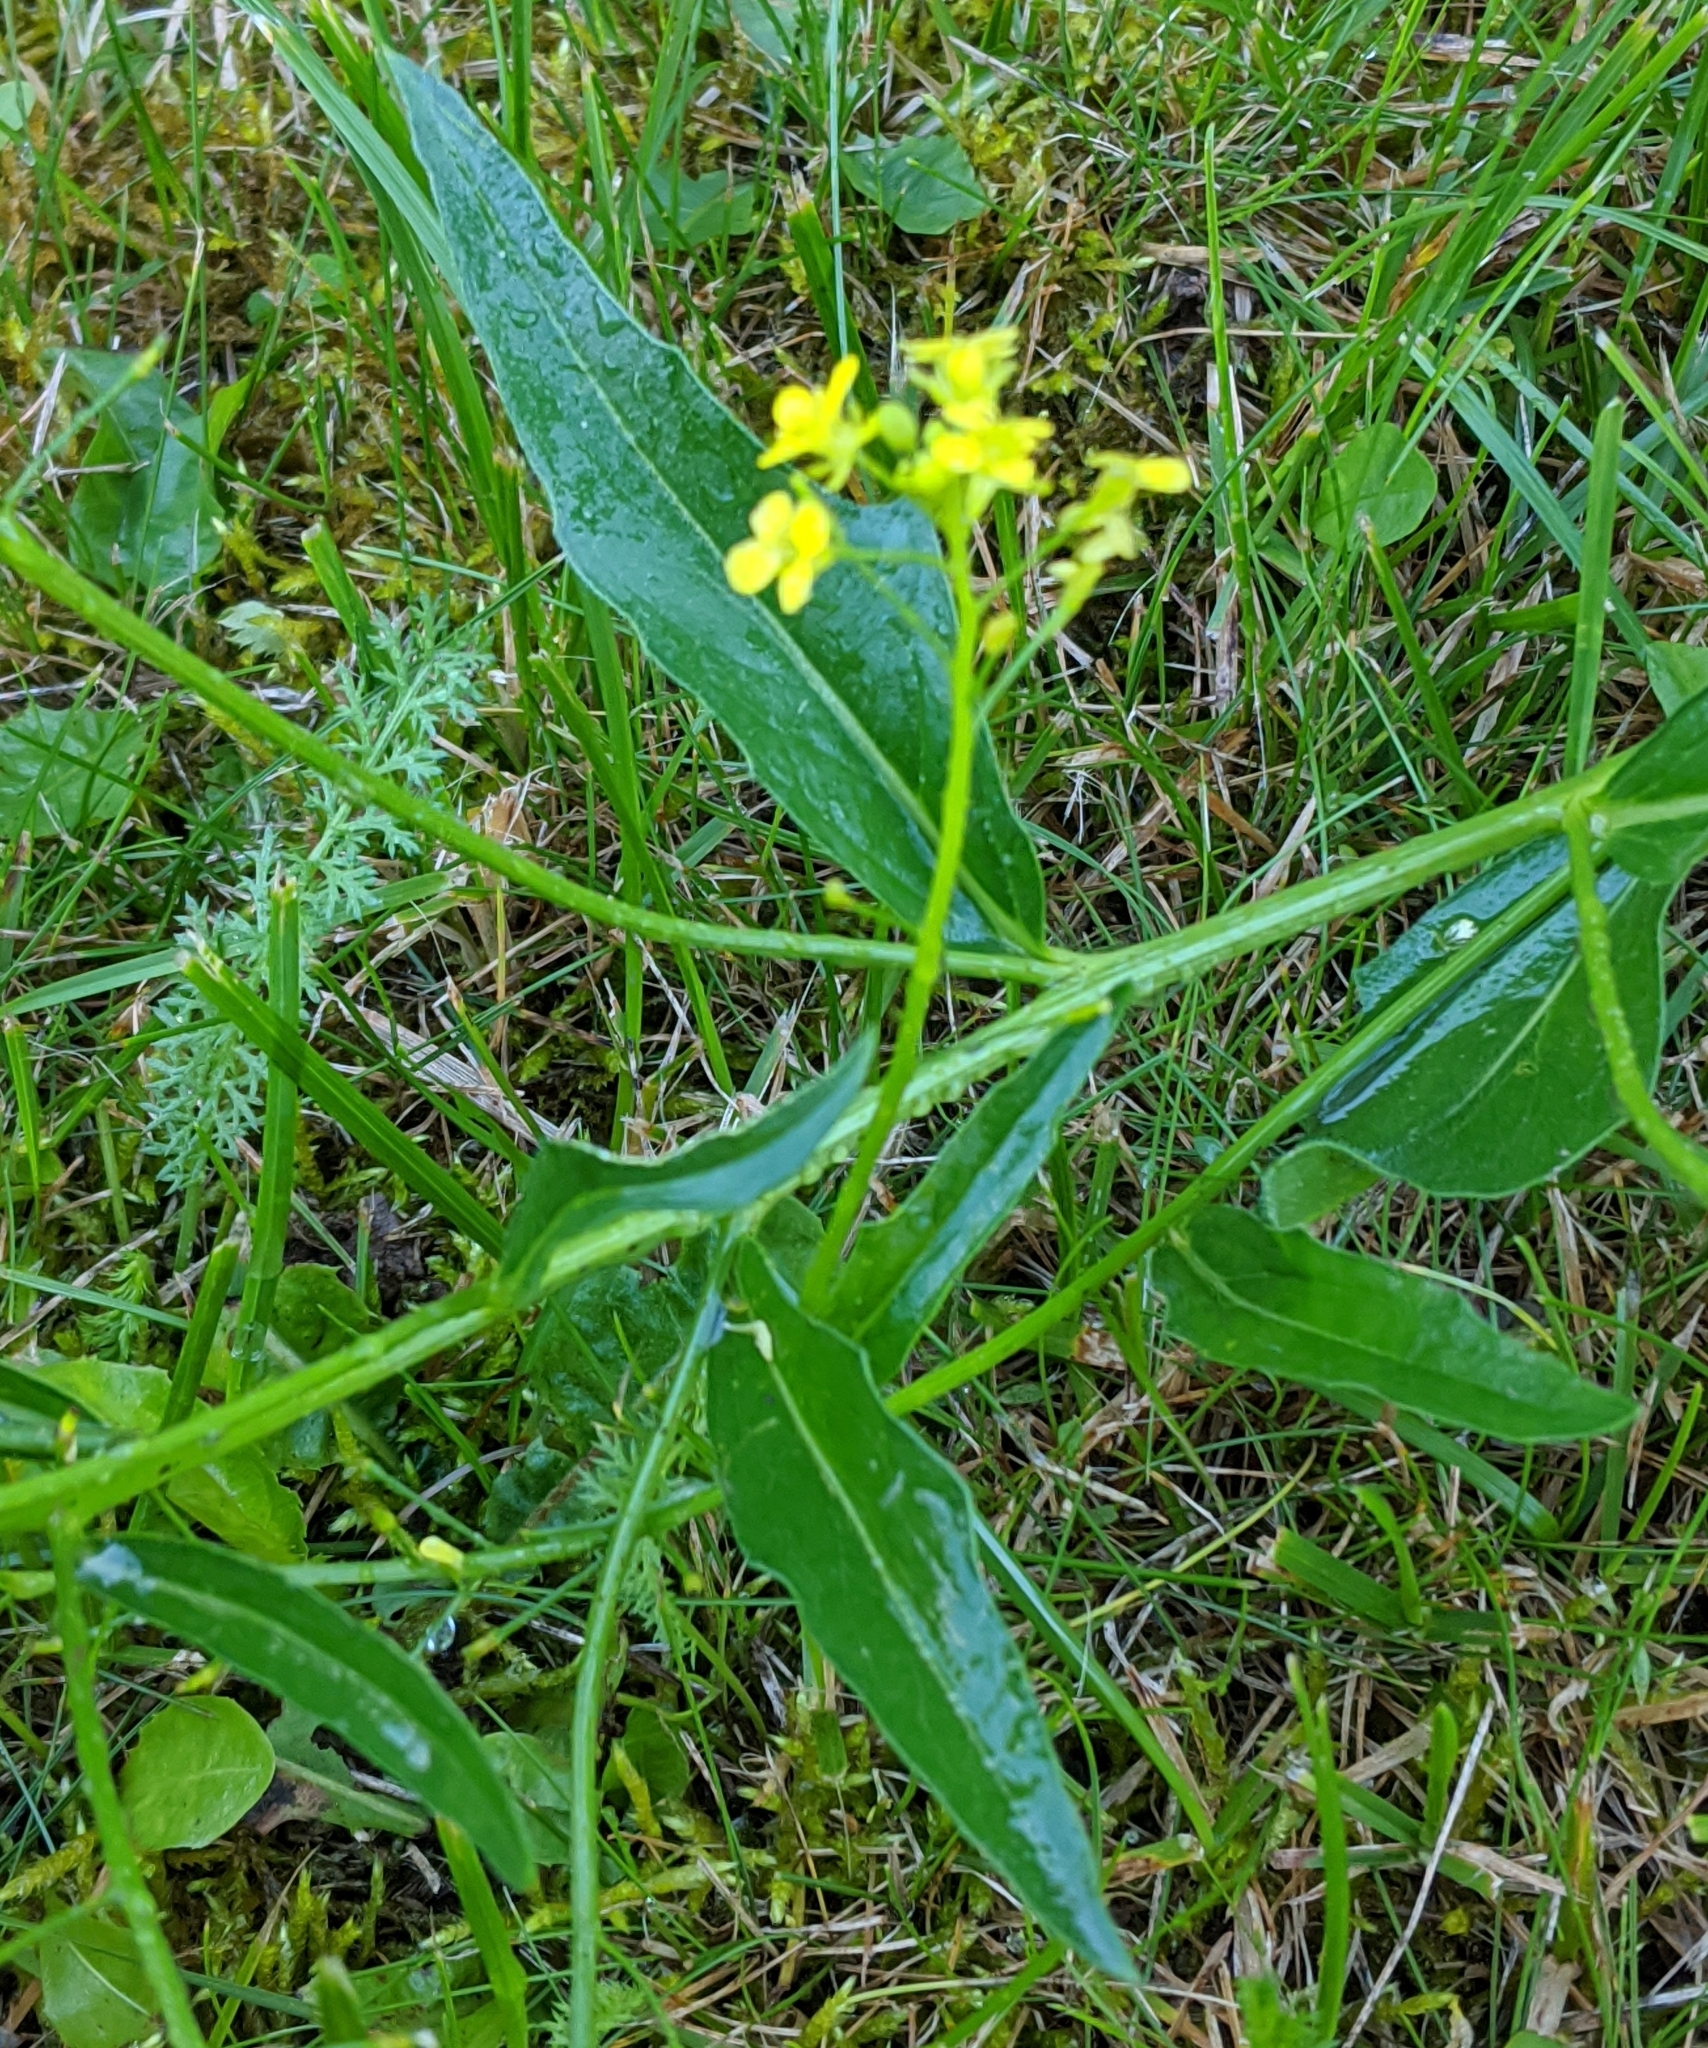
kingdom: Plantae
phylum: Tracheophyta
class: Magnoliopsida
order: Brassicales
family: Brassicaceae
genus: Bunias
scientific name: Bunias orientalis
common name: Warty-cabbage
